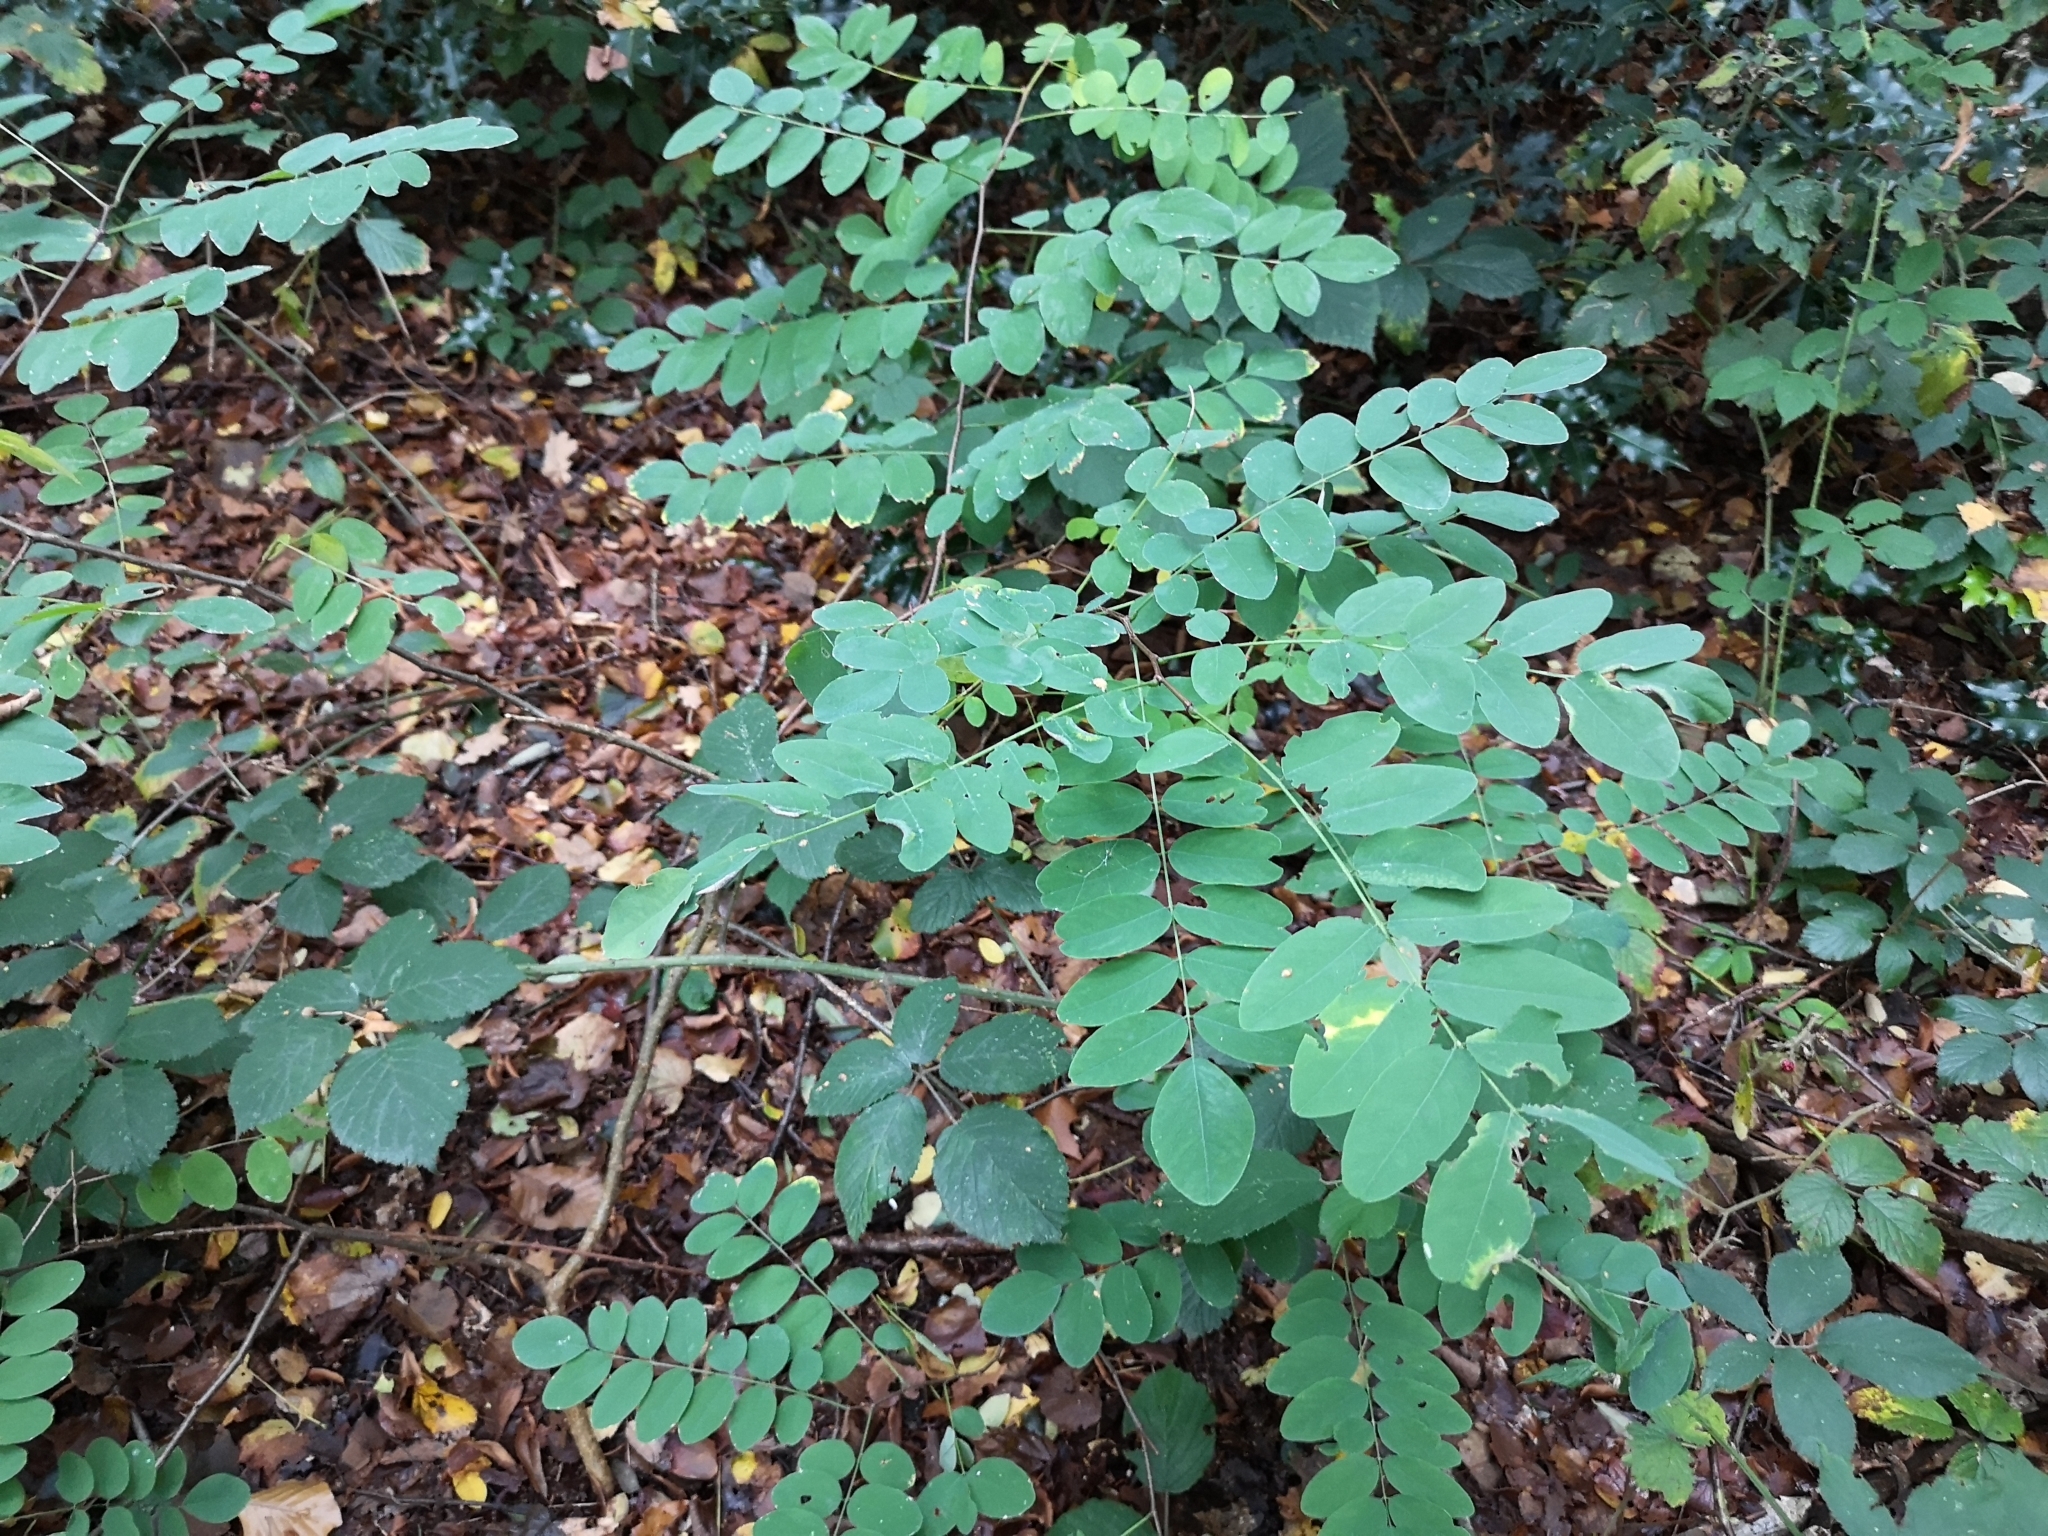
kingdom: Plantae
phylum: Tracheophyta
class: Magnoliopsida
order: Fabales
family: Fabaceae
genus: Robinia
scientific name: Robinia pseudoacacia
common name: Black locust
